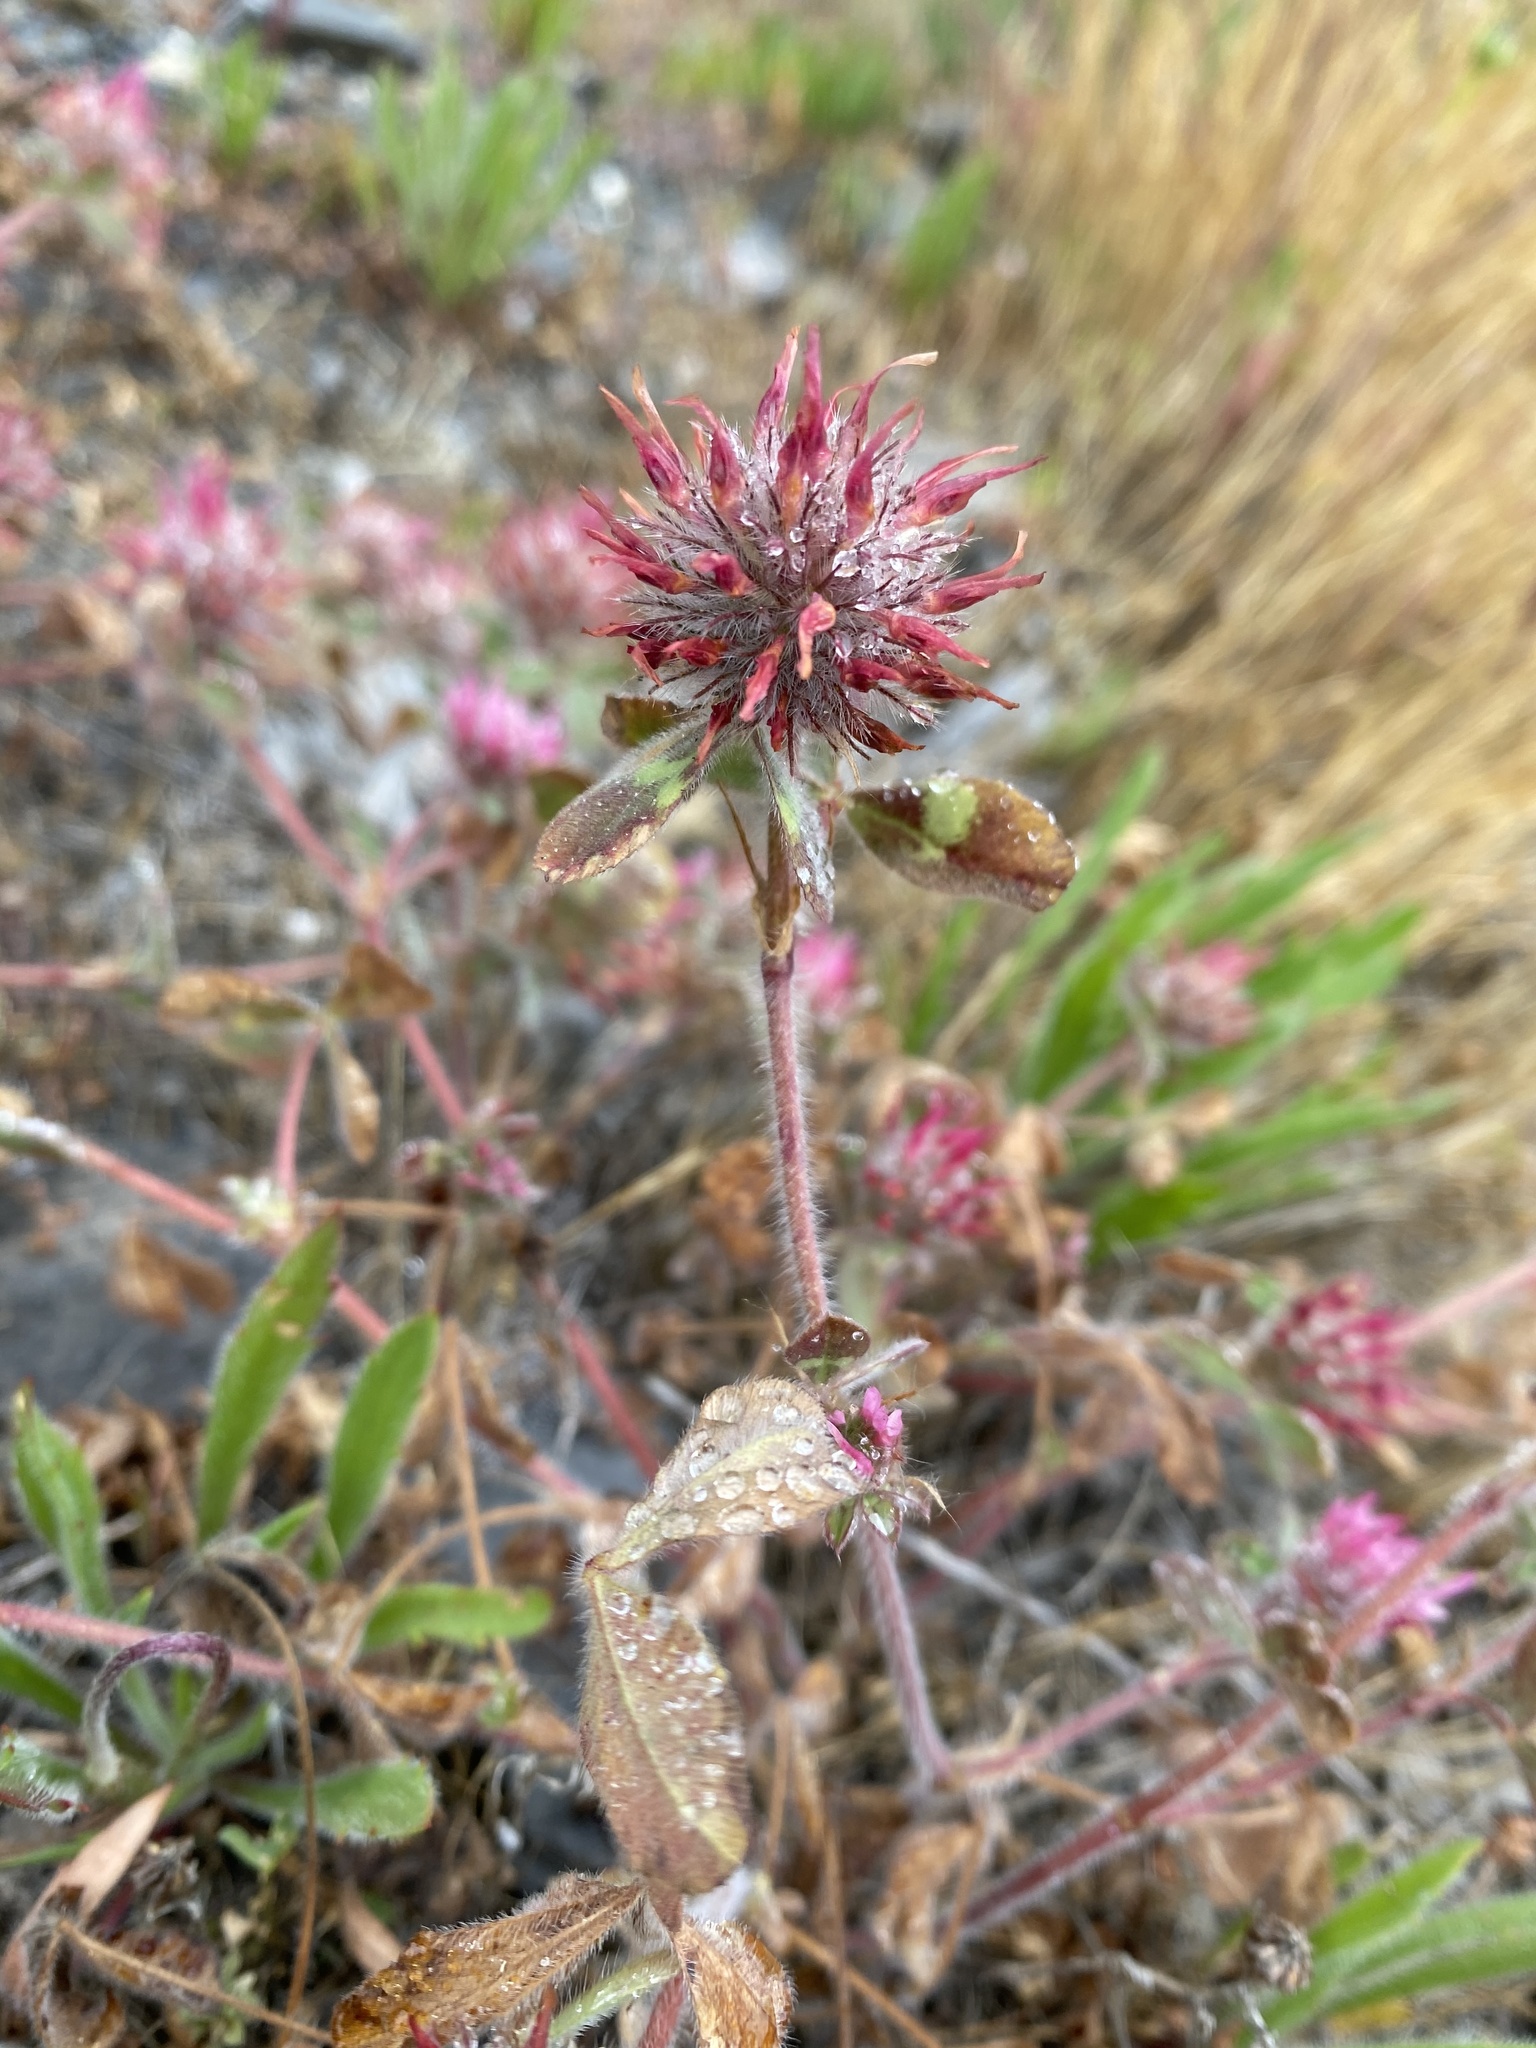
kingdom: Plantae
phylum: Tracheophyta
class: Magnoliopsida
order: Fabales
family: Fabaceae
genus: Trifolium
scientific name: Trifolium hirtum
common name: Rose clover
